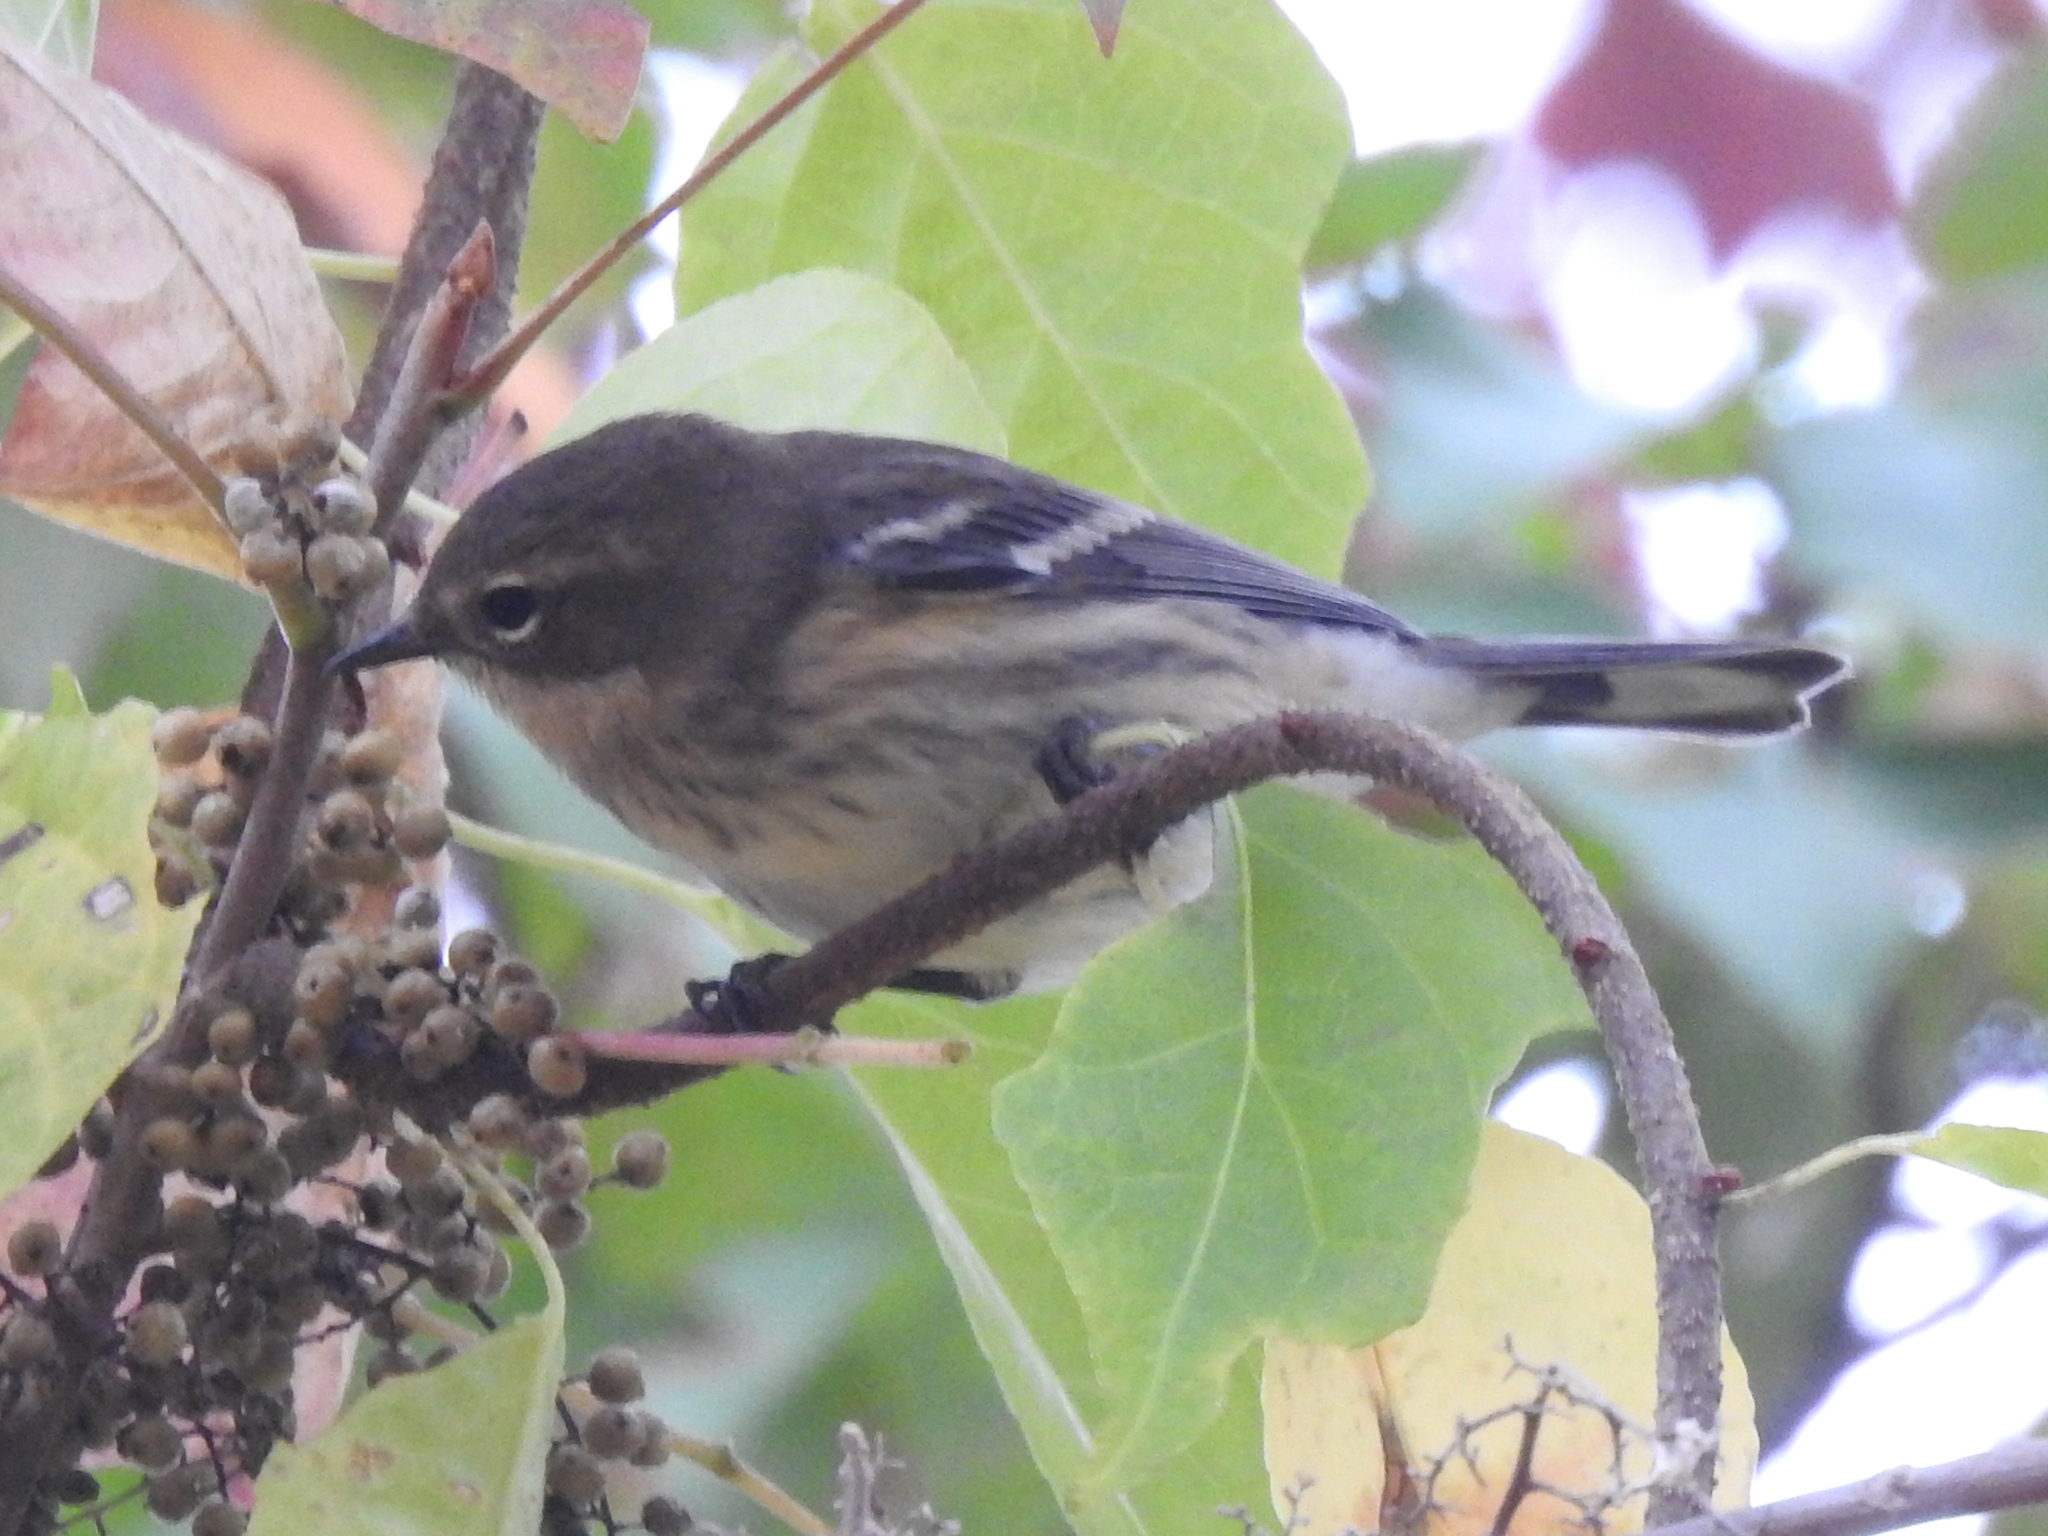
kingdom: Animalia
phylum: Chordata
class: Aves
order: Passeriformes
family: Parulidae
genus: Setophaga
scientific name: Setophaga coronata
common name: Myrtle warbler
